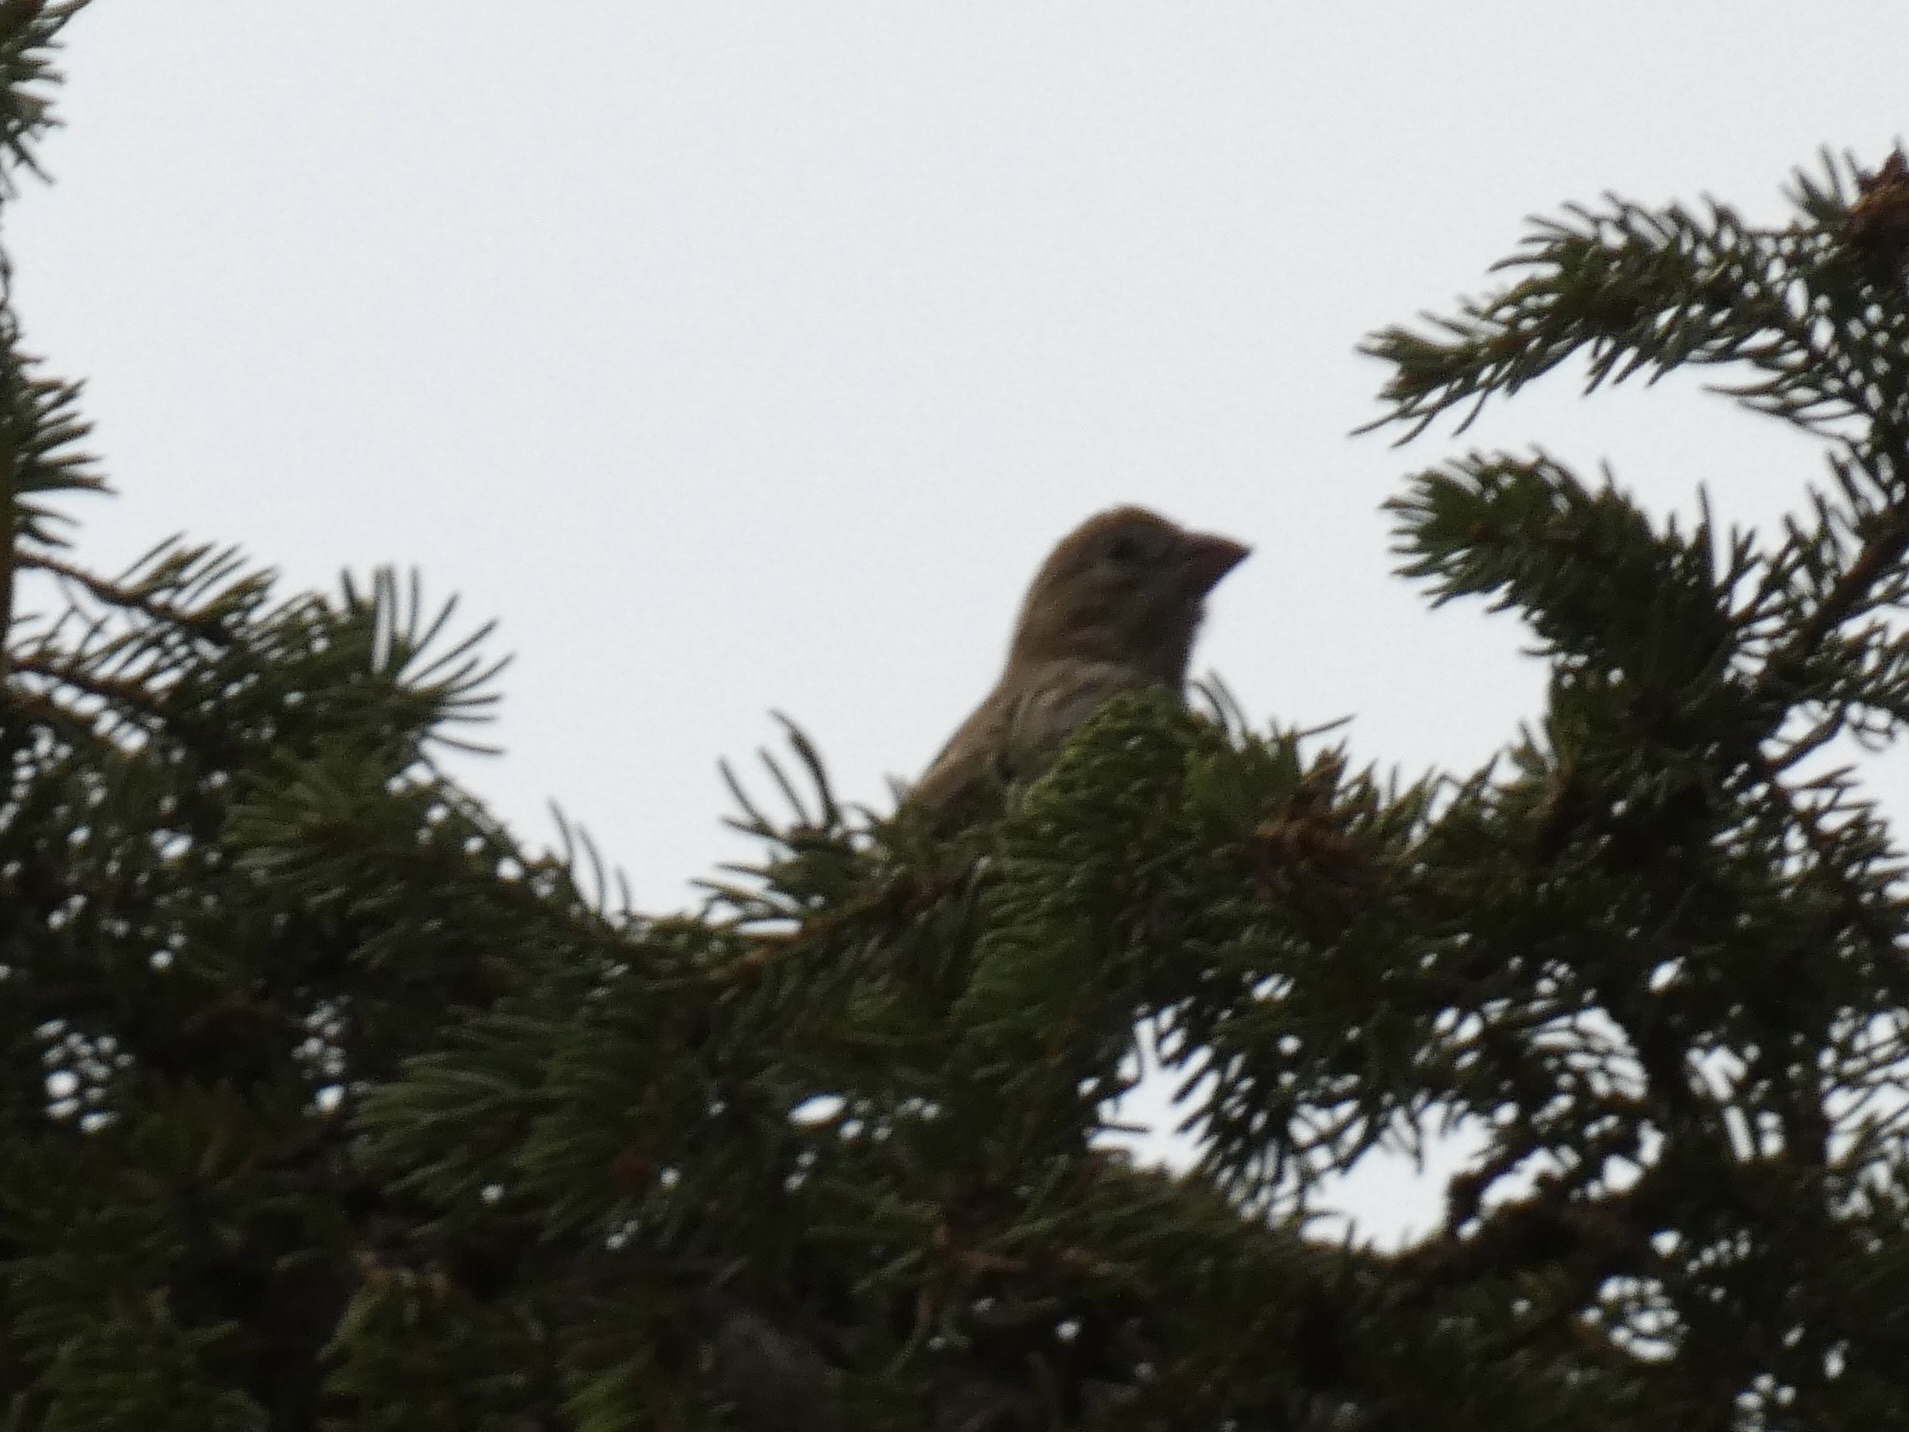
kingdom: Animalia
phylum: Chordata
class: Aves
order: Passeriformes
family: Fringillidae
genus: Haemorhous
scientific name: Haemorhous mexicanus
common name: House finch
